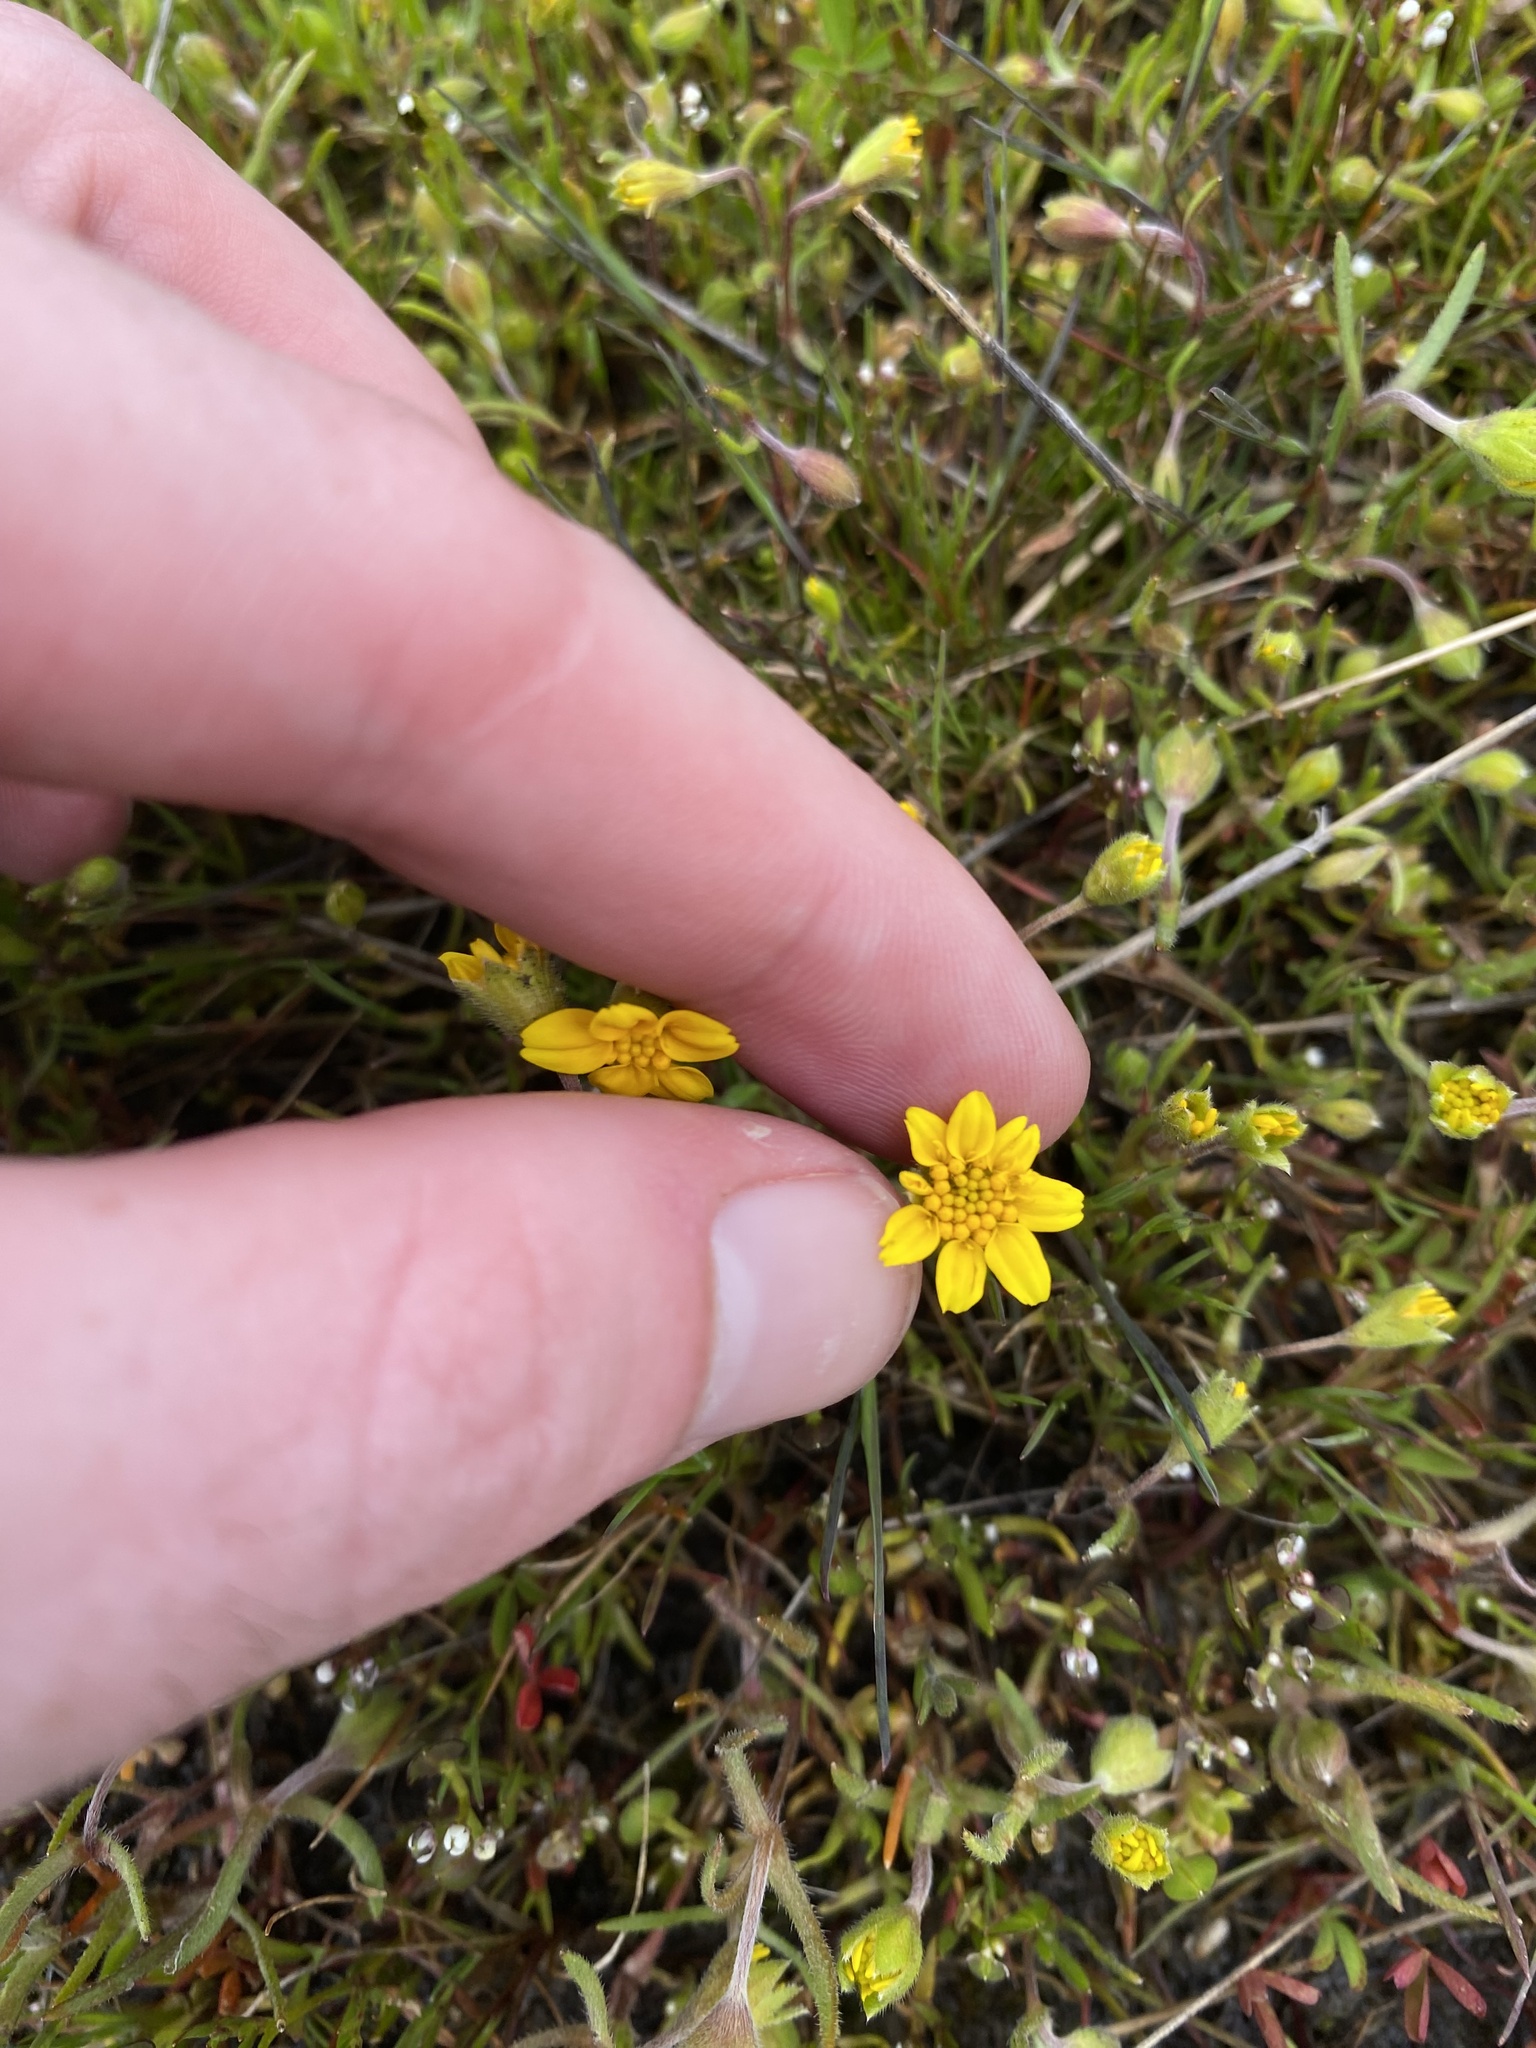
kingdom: Plantae
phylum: Tracheophyta
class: Magnoliopsida
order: Asterales
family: Asteraceae
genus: Lasthenia
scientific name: Lasthenia californica
